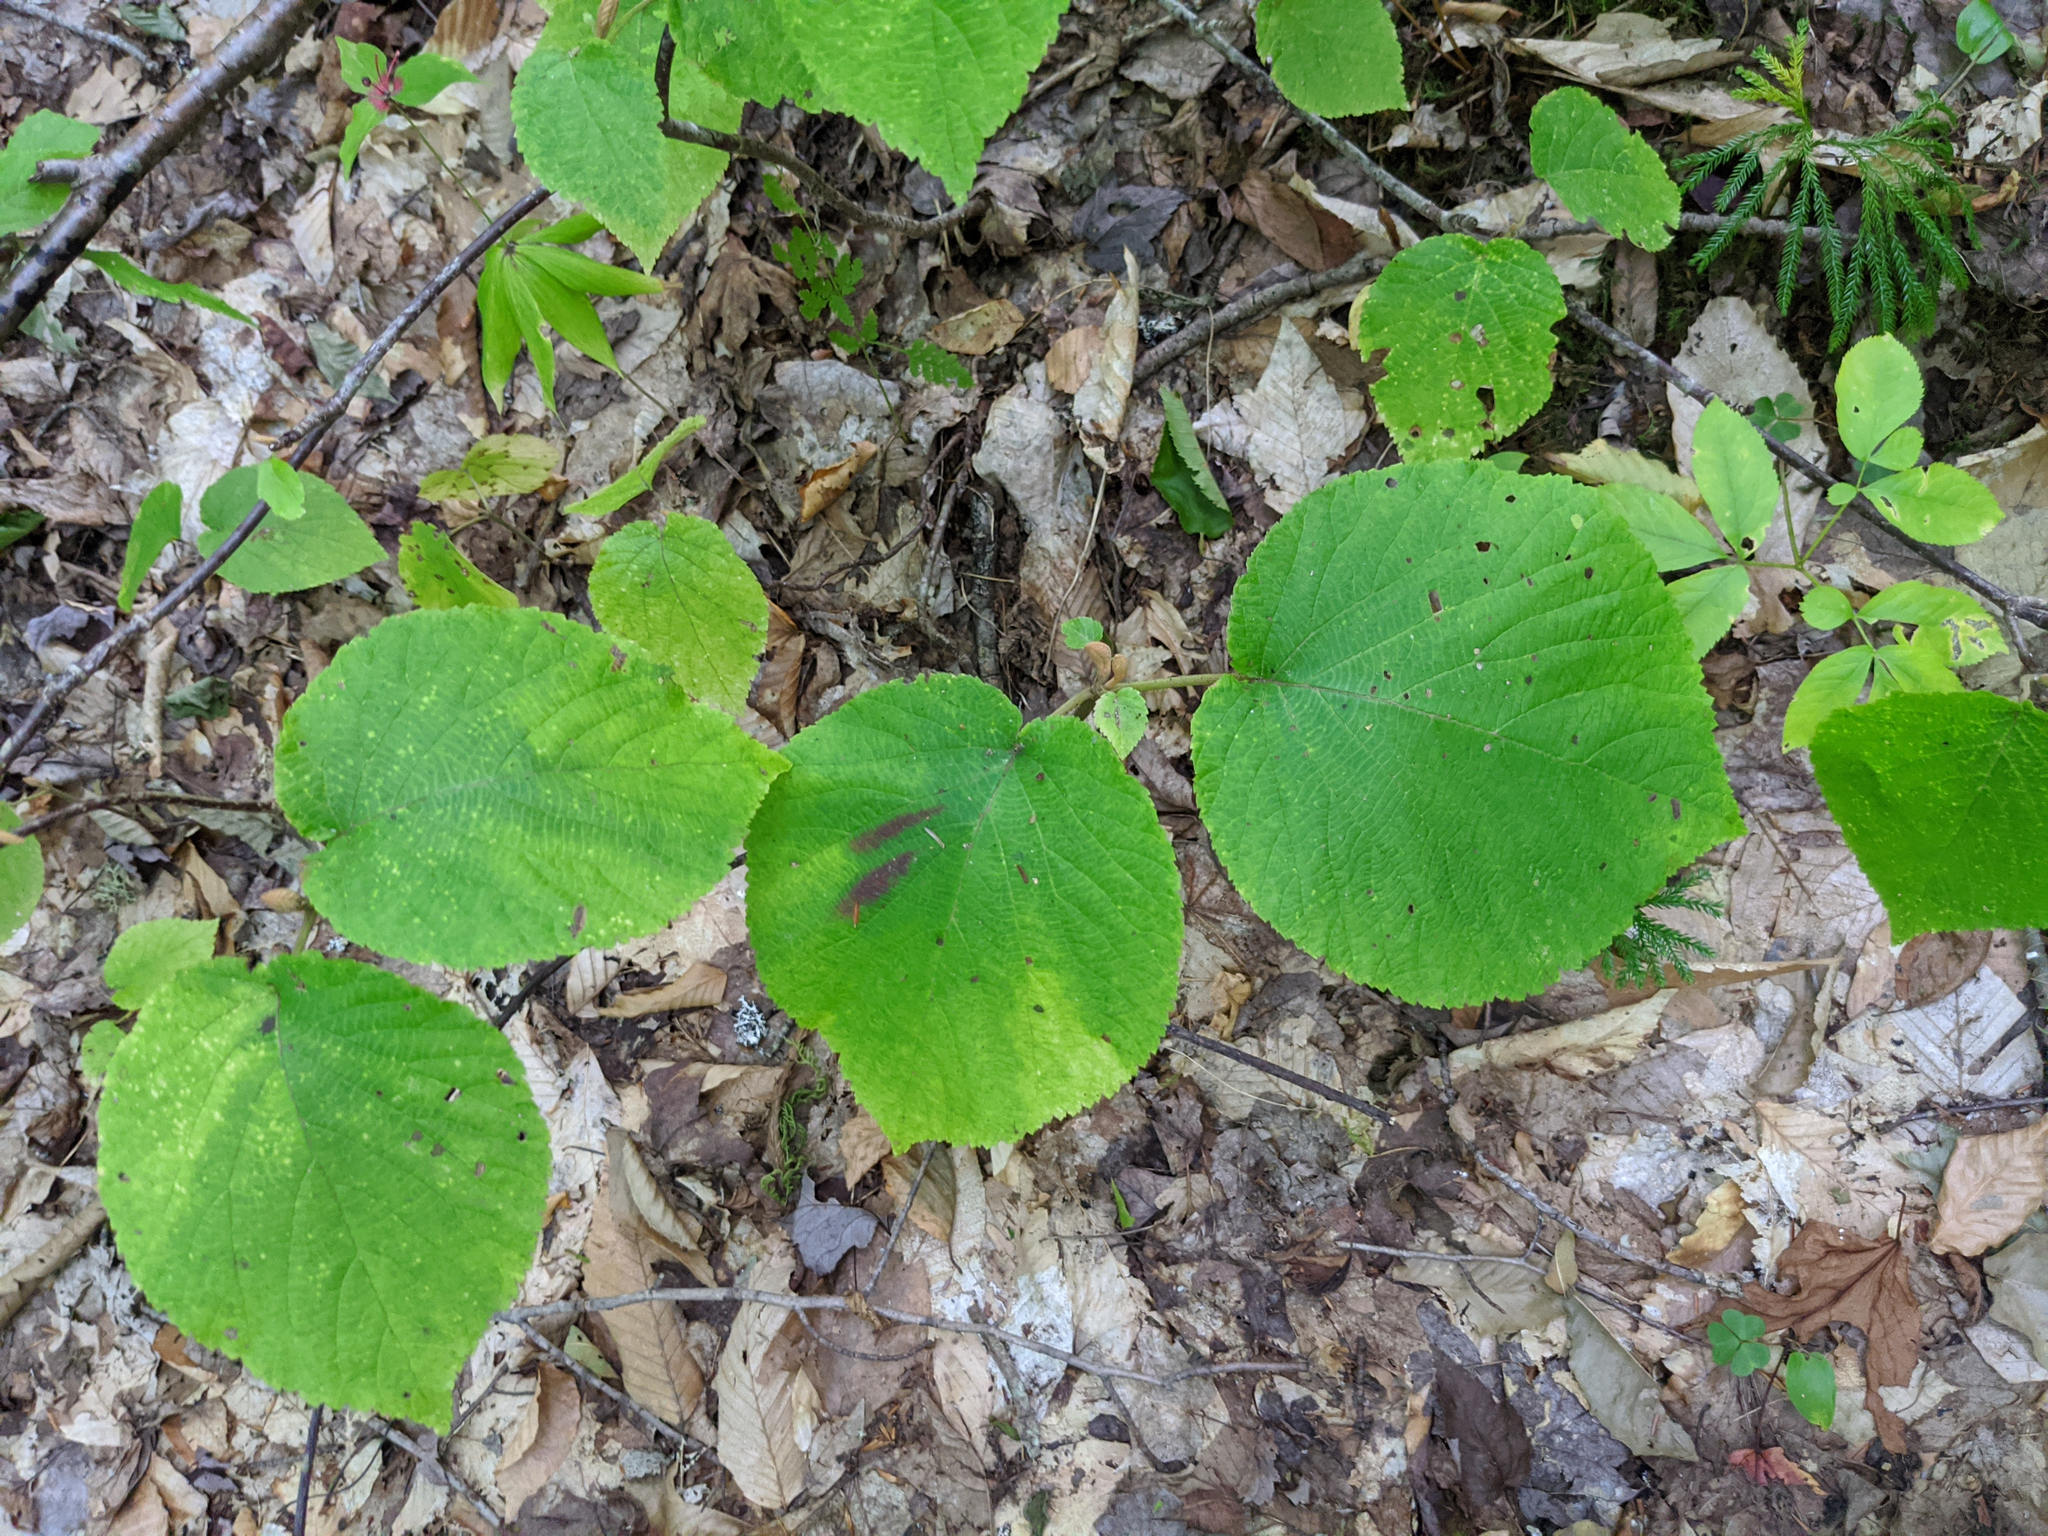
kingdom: Plantae
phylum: Tracheophyta
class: Magnoliopsida
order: Dipsacales
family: Viburnaceae
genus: Viburnum
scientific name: Viburnum lantanoides
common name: Hobblebush
